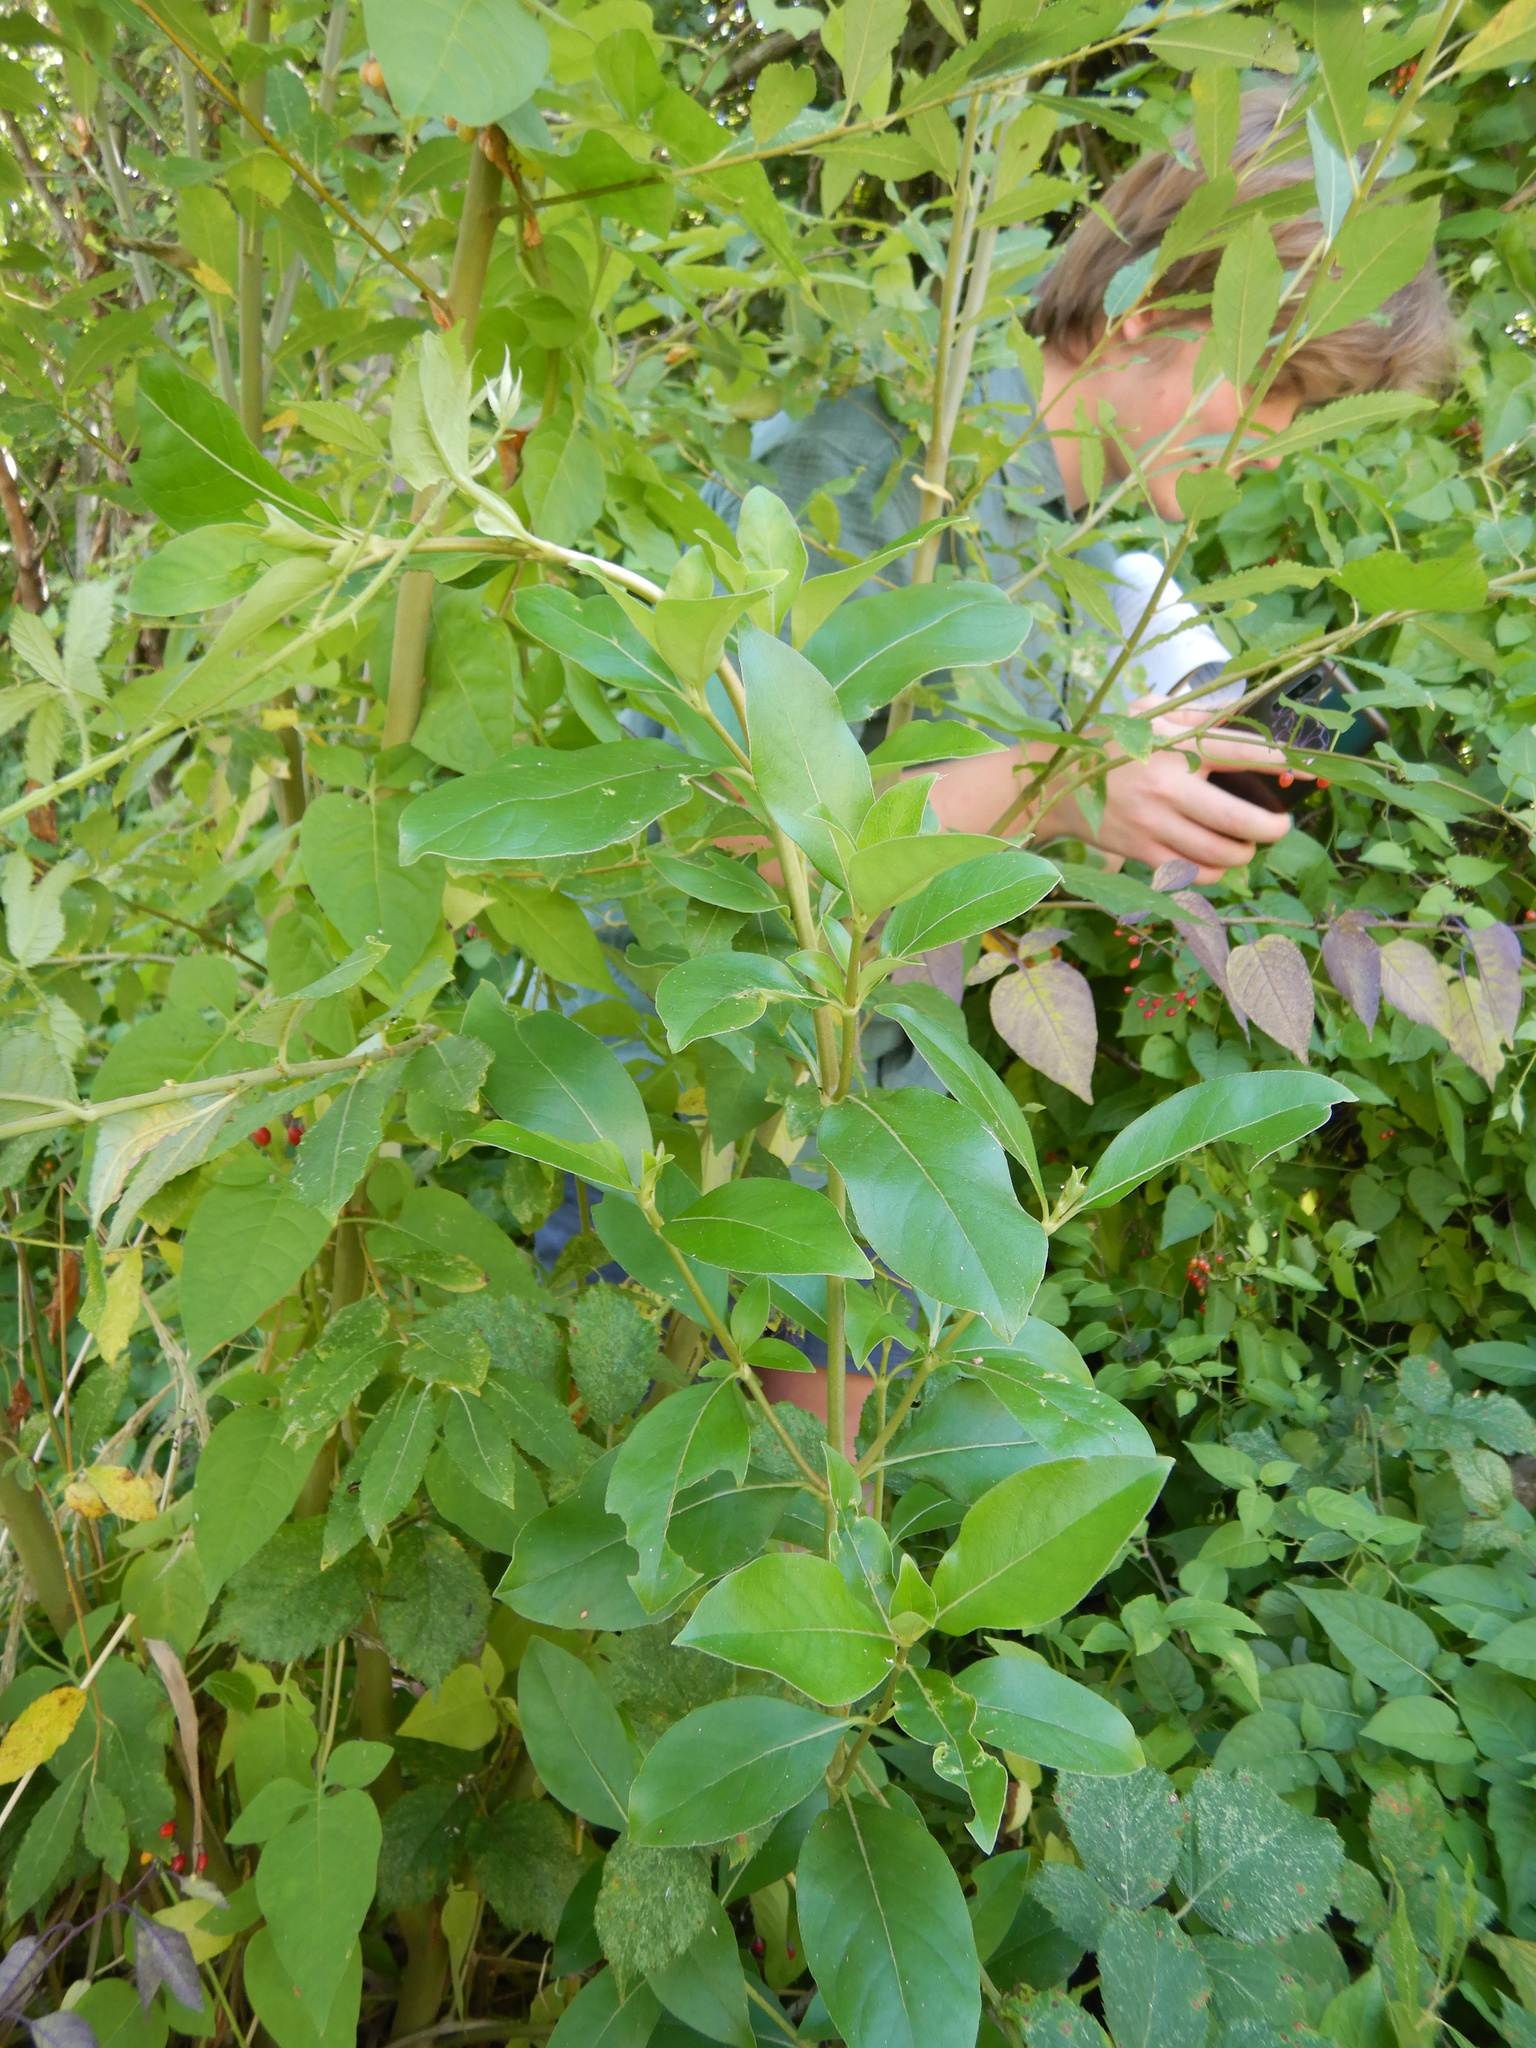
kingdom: Plantae
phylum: Tracheophyta
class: Magnoliopsida
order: Gentianales
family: Rubiaceae
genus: Coprosma
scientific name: Coprosma robusta
